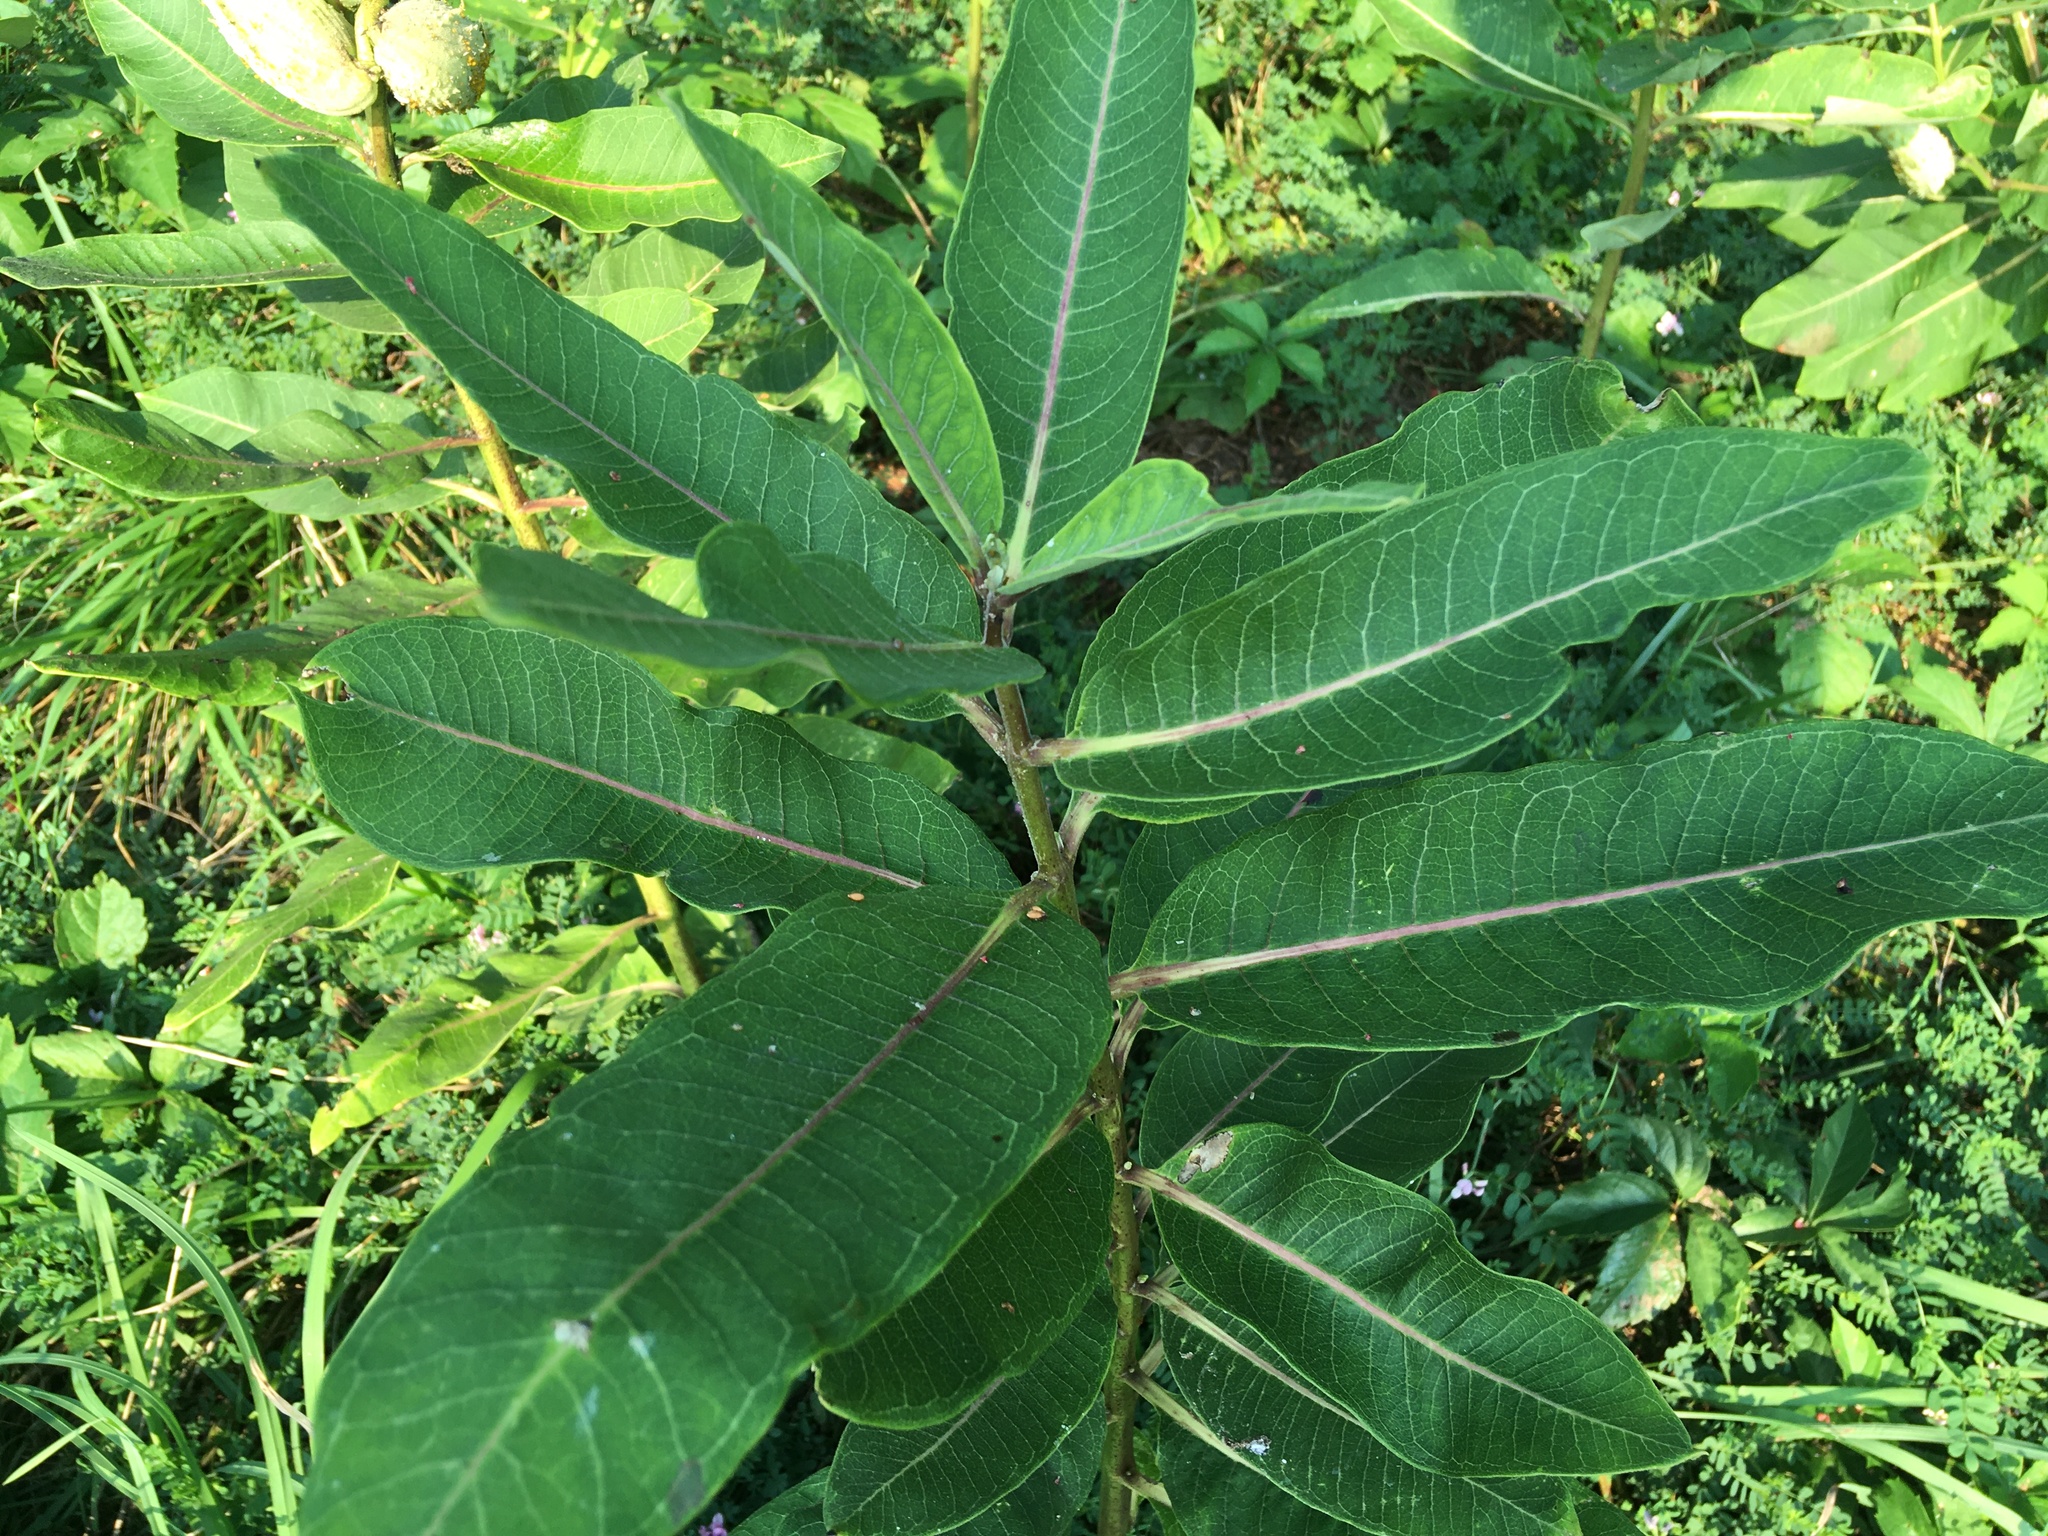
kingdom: Plantae
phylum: Tracheophyta
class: Magnoliopsida
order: Gentianales
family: Apocynaceae
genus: Asclepias
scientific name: Asclepias syriaca
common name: Common milkweed
